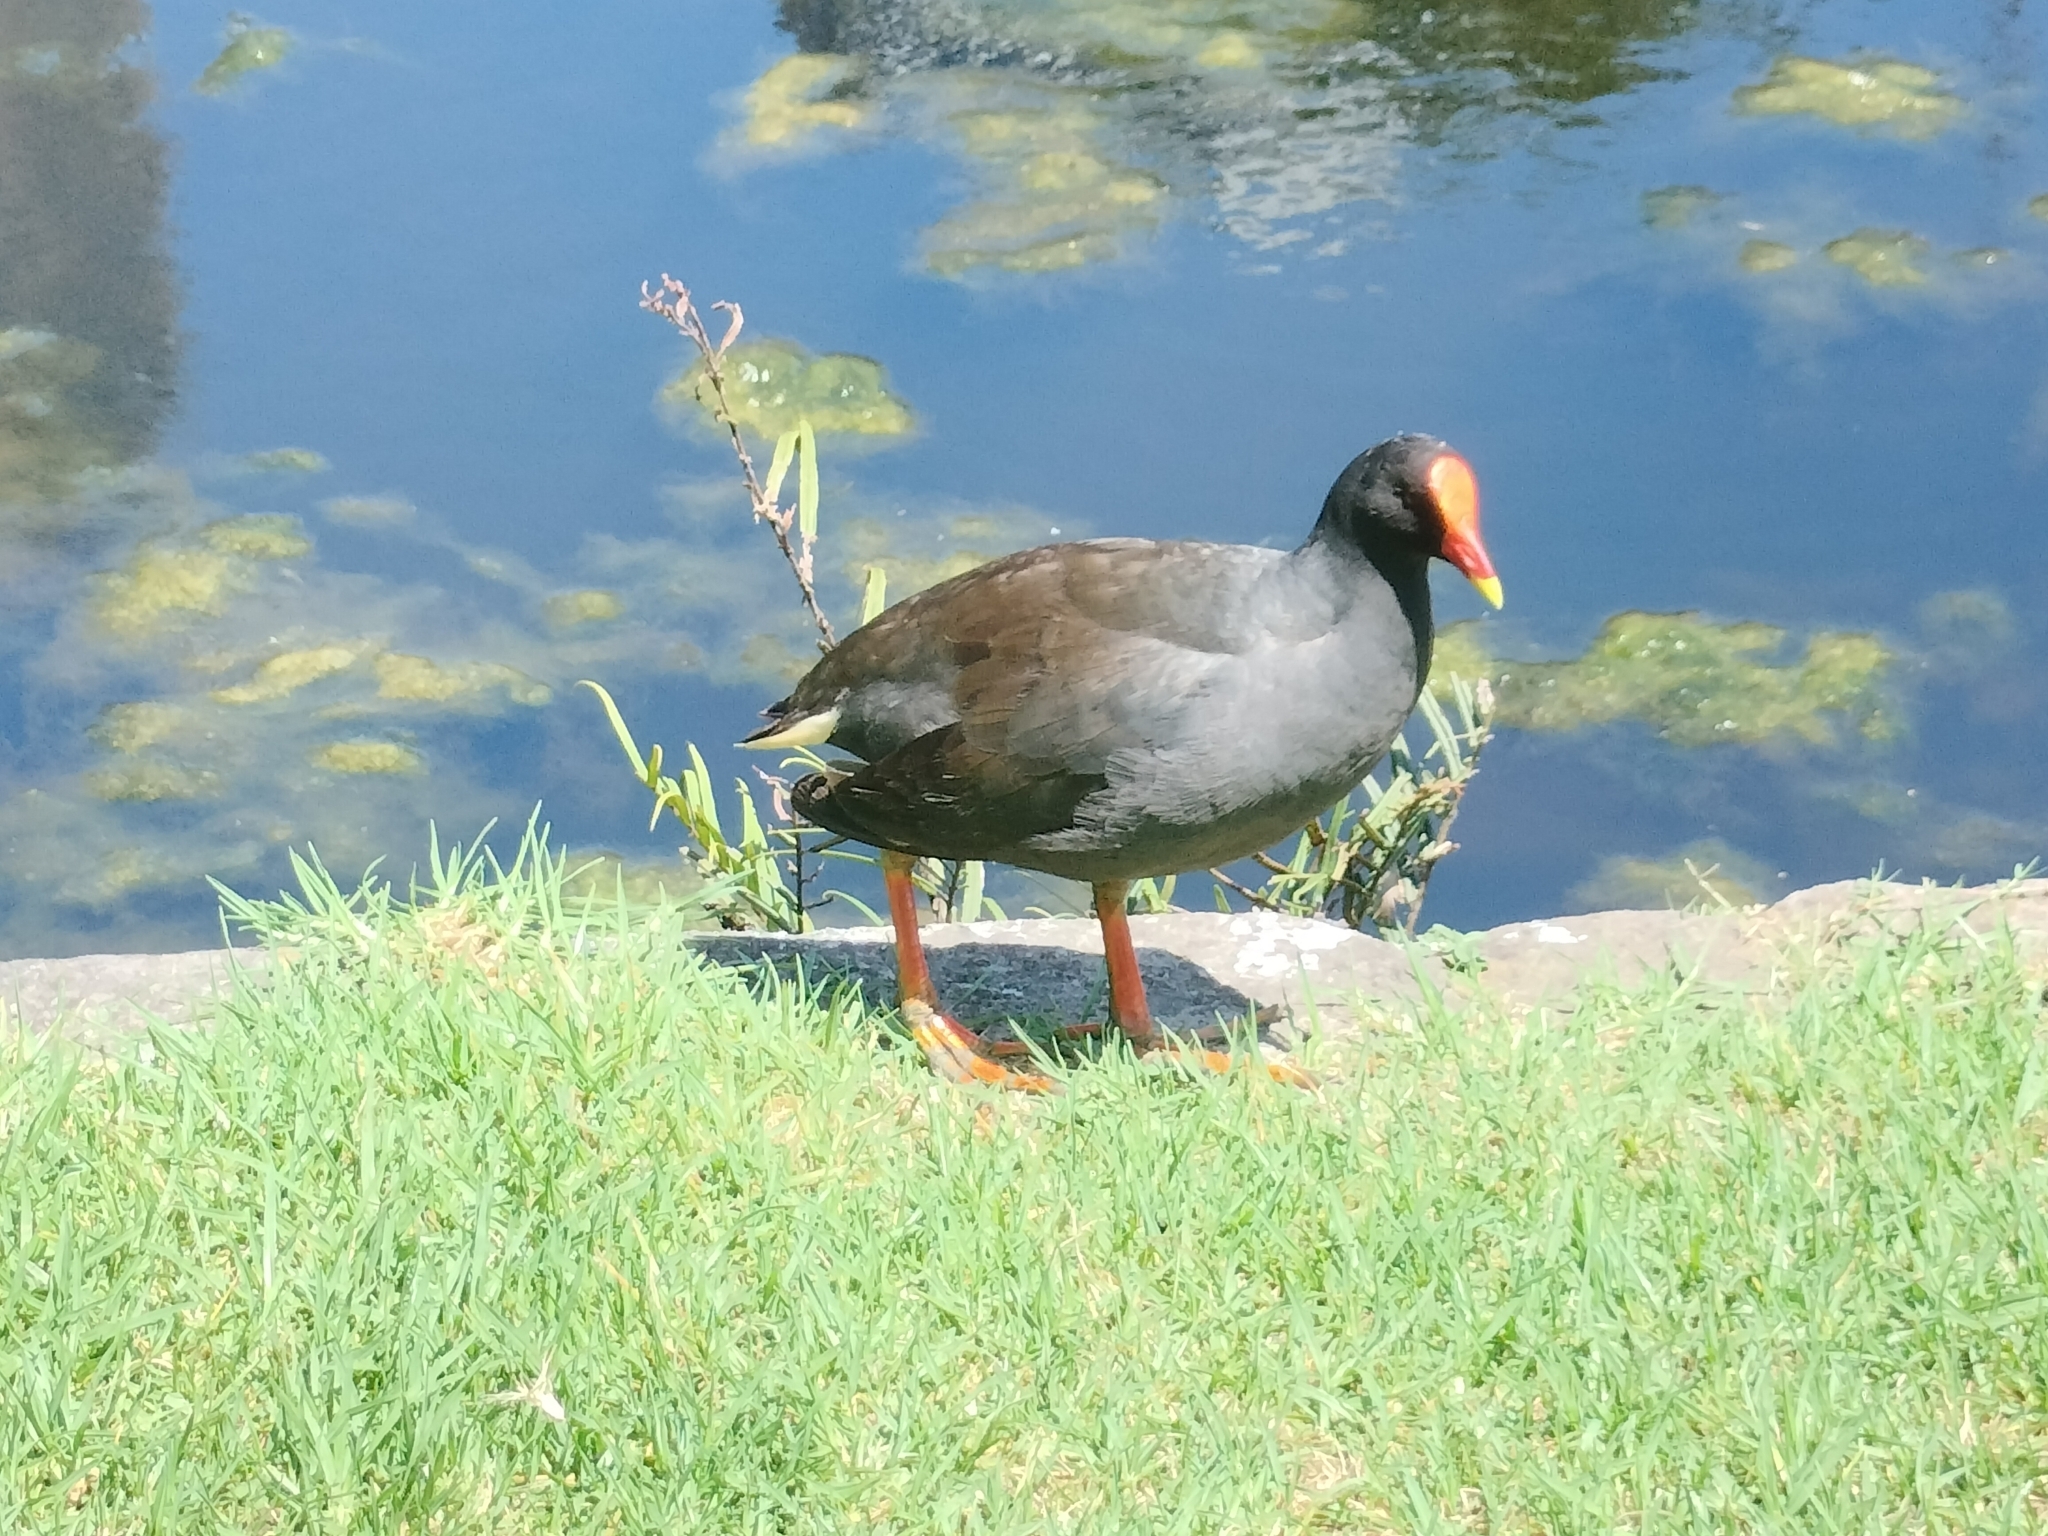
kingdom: Animalia
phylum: Chordata
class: Aves
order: Gruiformes
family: Rallidae
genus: Gallinula
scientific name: Gallinula tenebrosa
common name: Dusky moorhen
